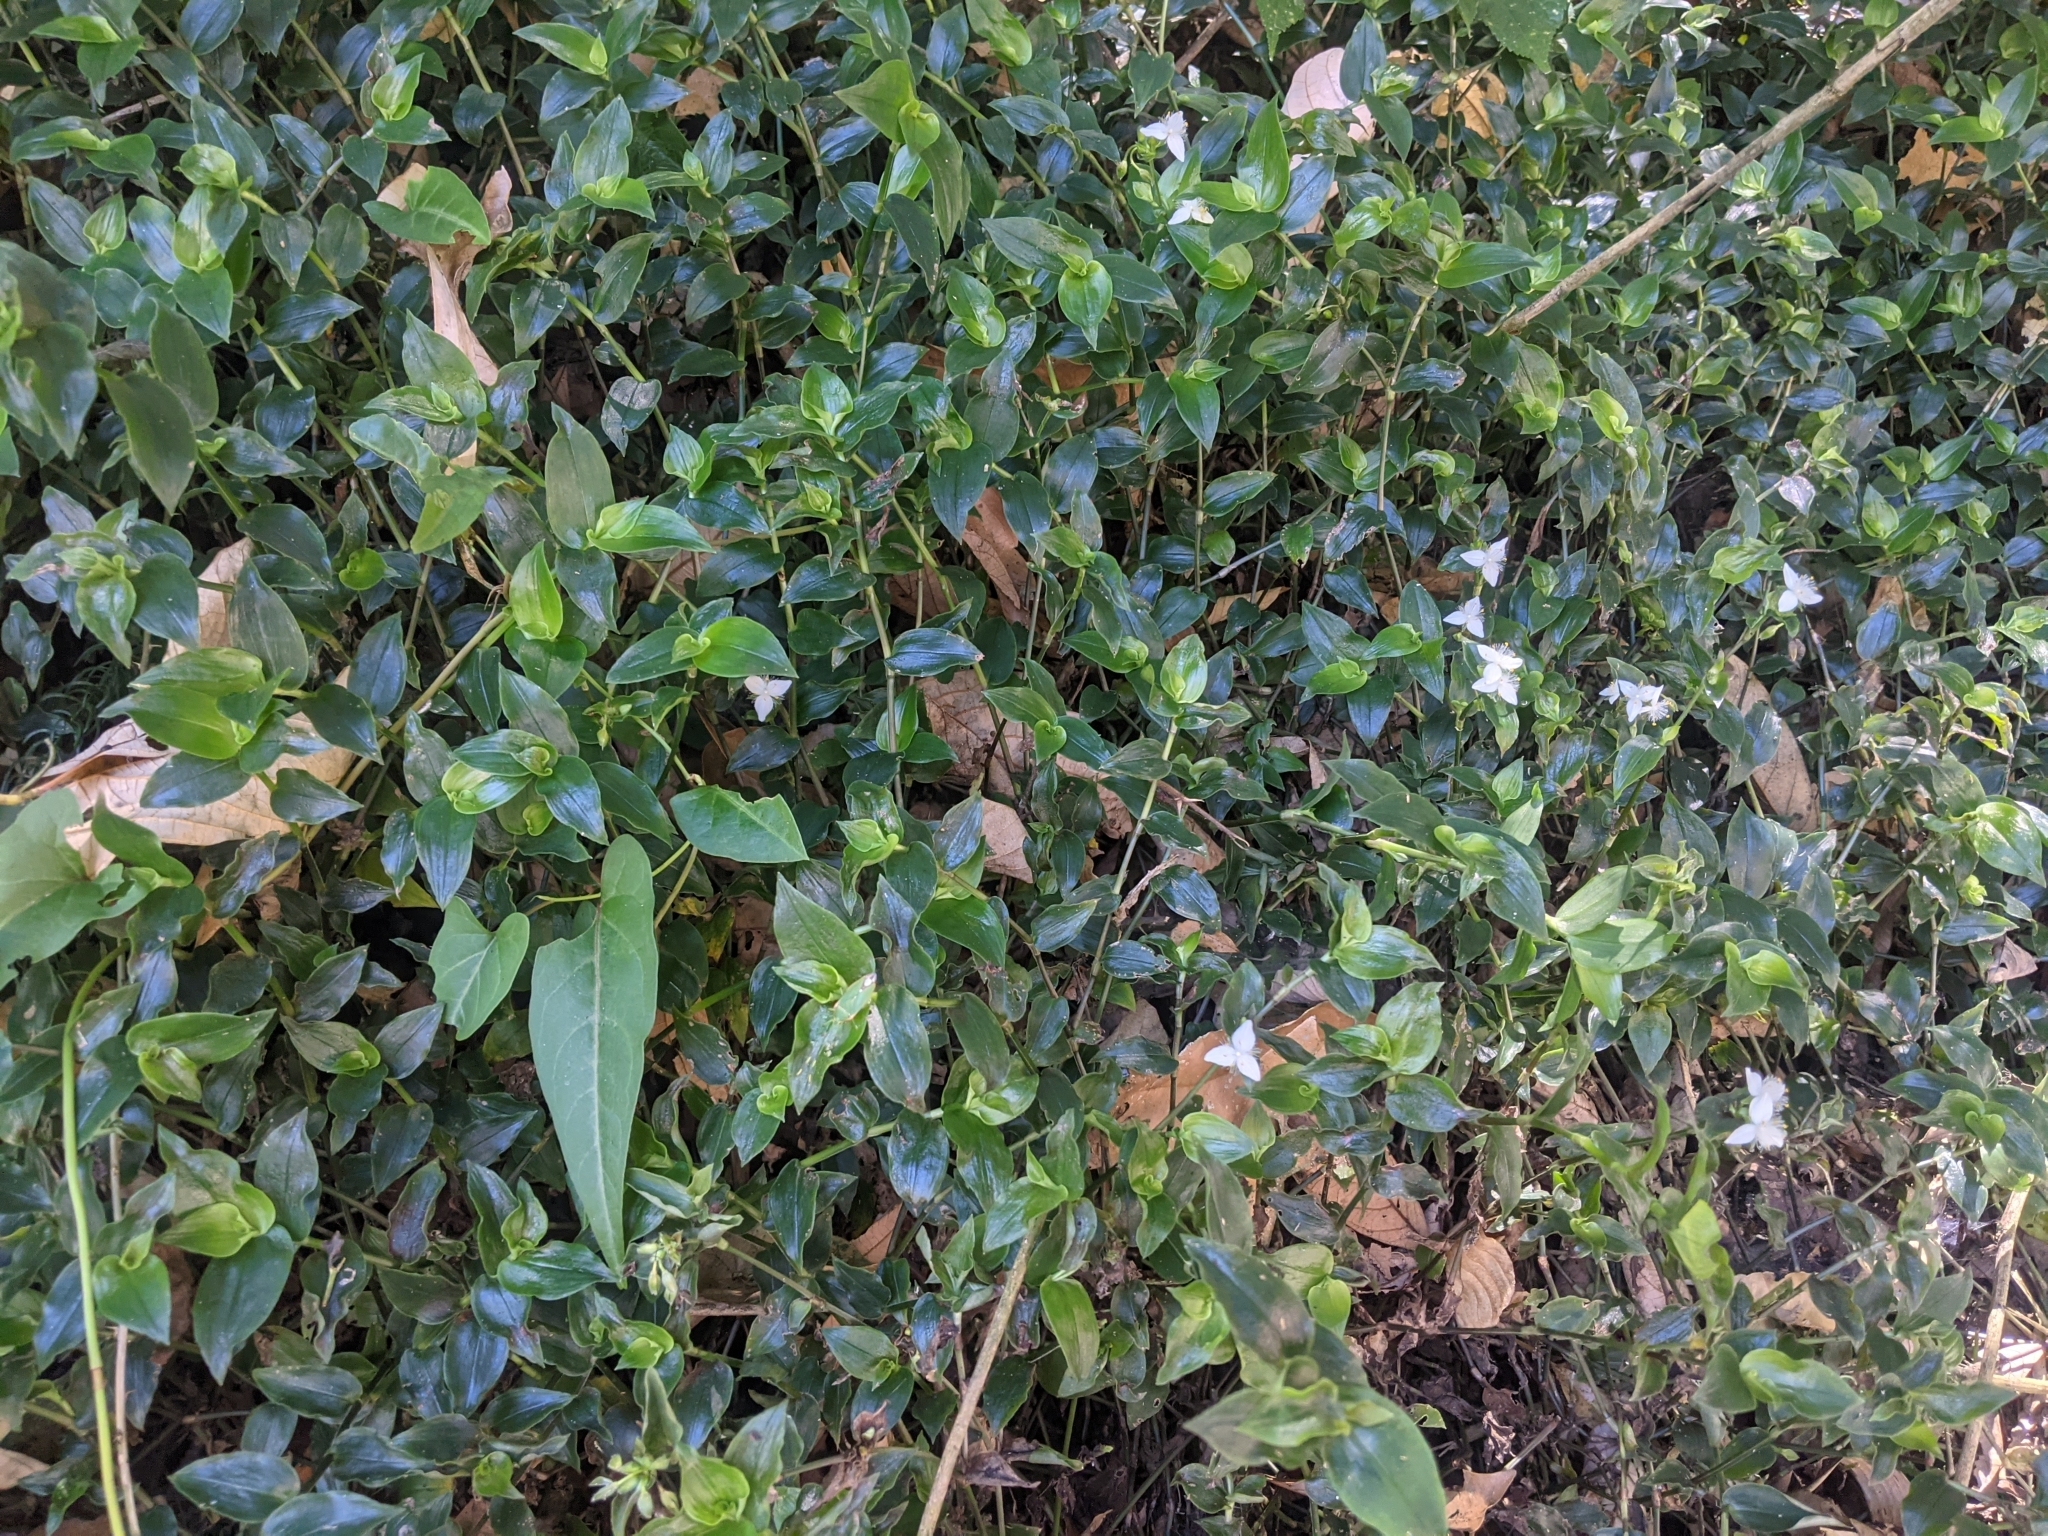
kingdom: Plantae
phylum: Tracheophyta
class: Liliopsida
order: Commelinales
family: Commelinaceae
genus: Tradescantia
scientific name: Tradescantia fluminensis
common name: Wandering-jew
